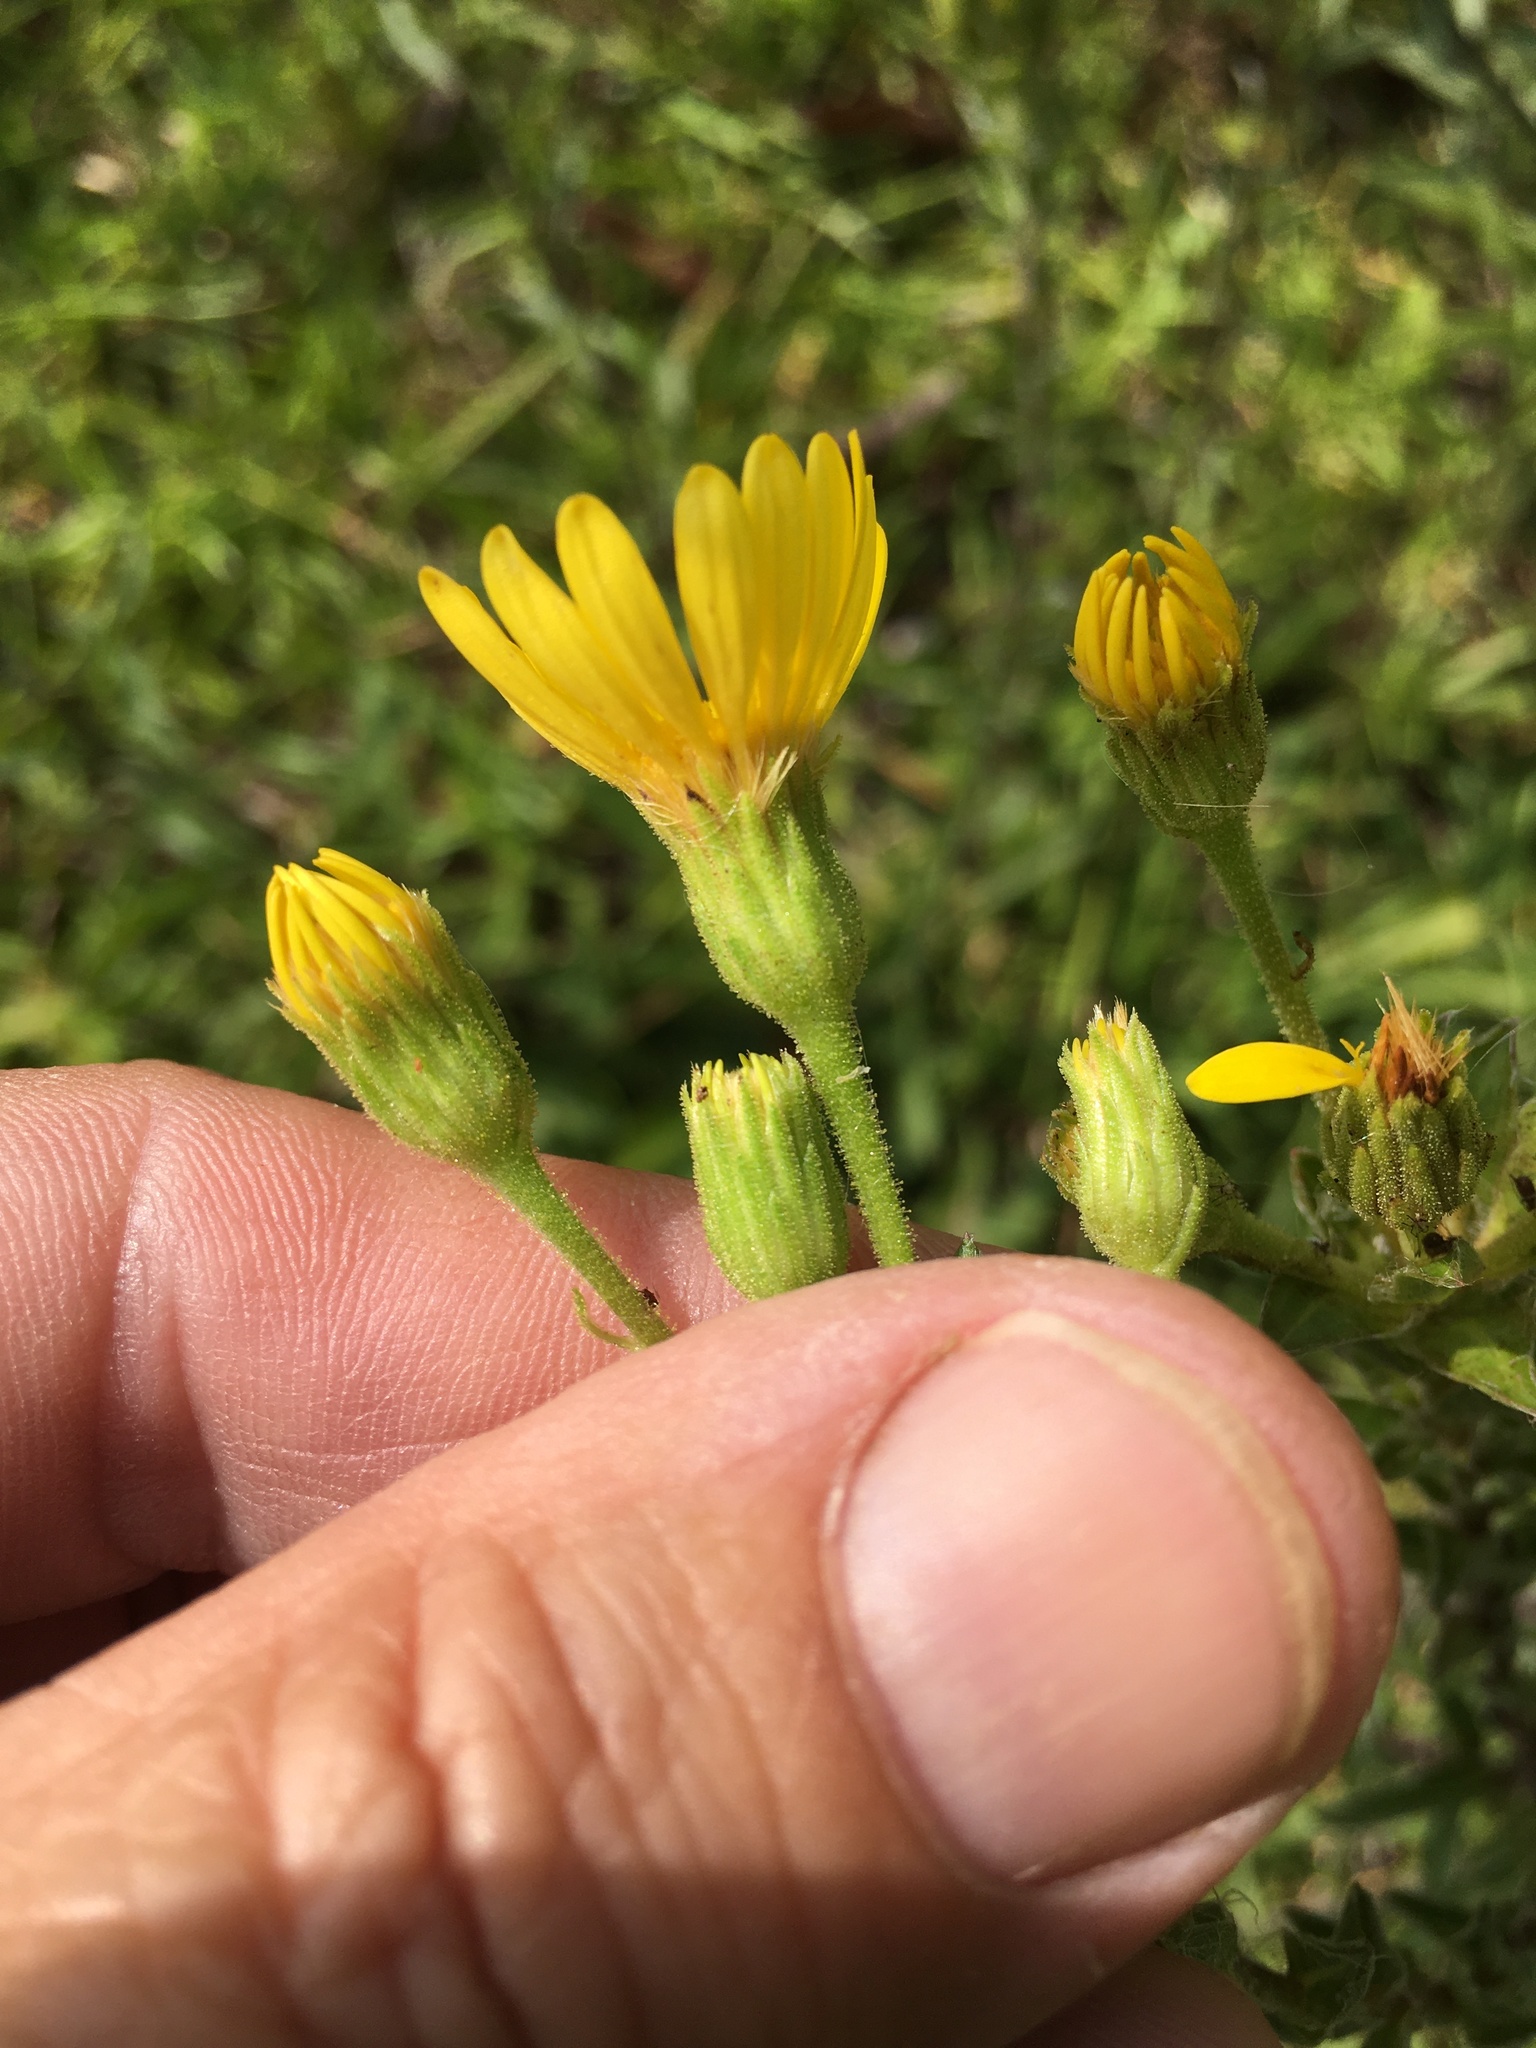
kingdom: Plantae
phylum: Tracheophyta
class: Magnoliopsida
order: Asterales
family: Asteraceae
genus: Chrysopsis
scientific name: Chrysopsis mariana
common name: Maryland golden-aster
